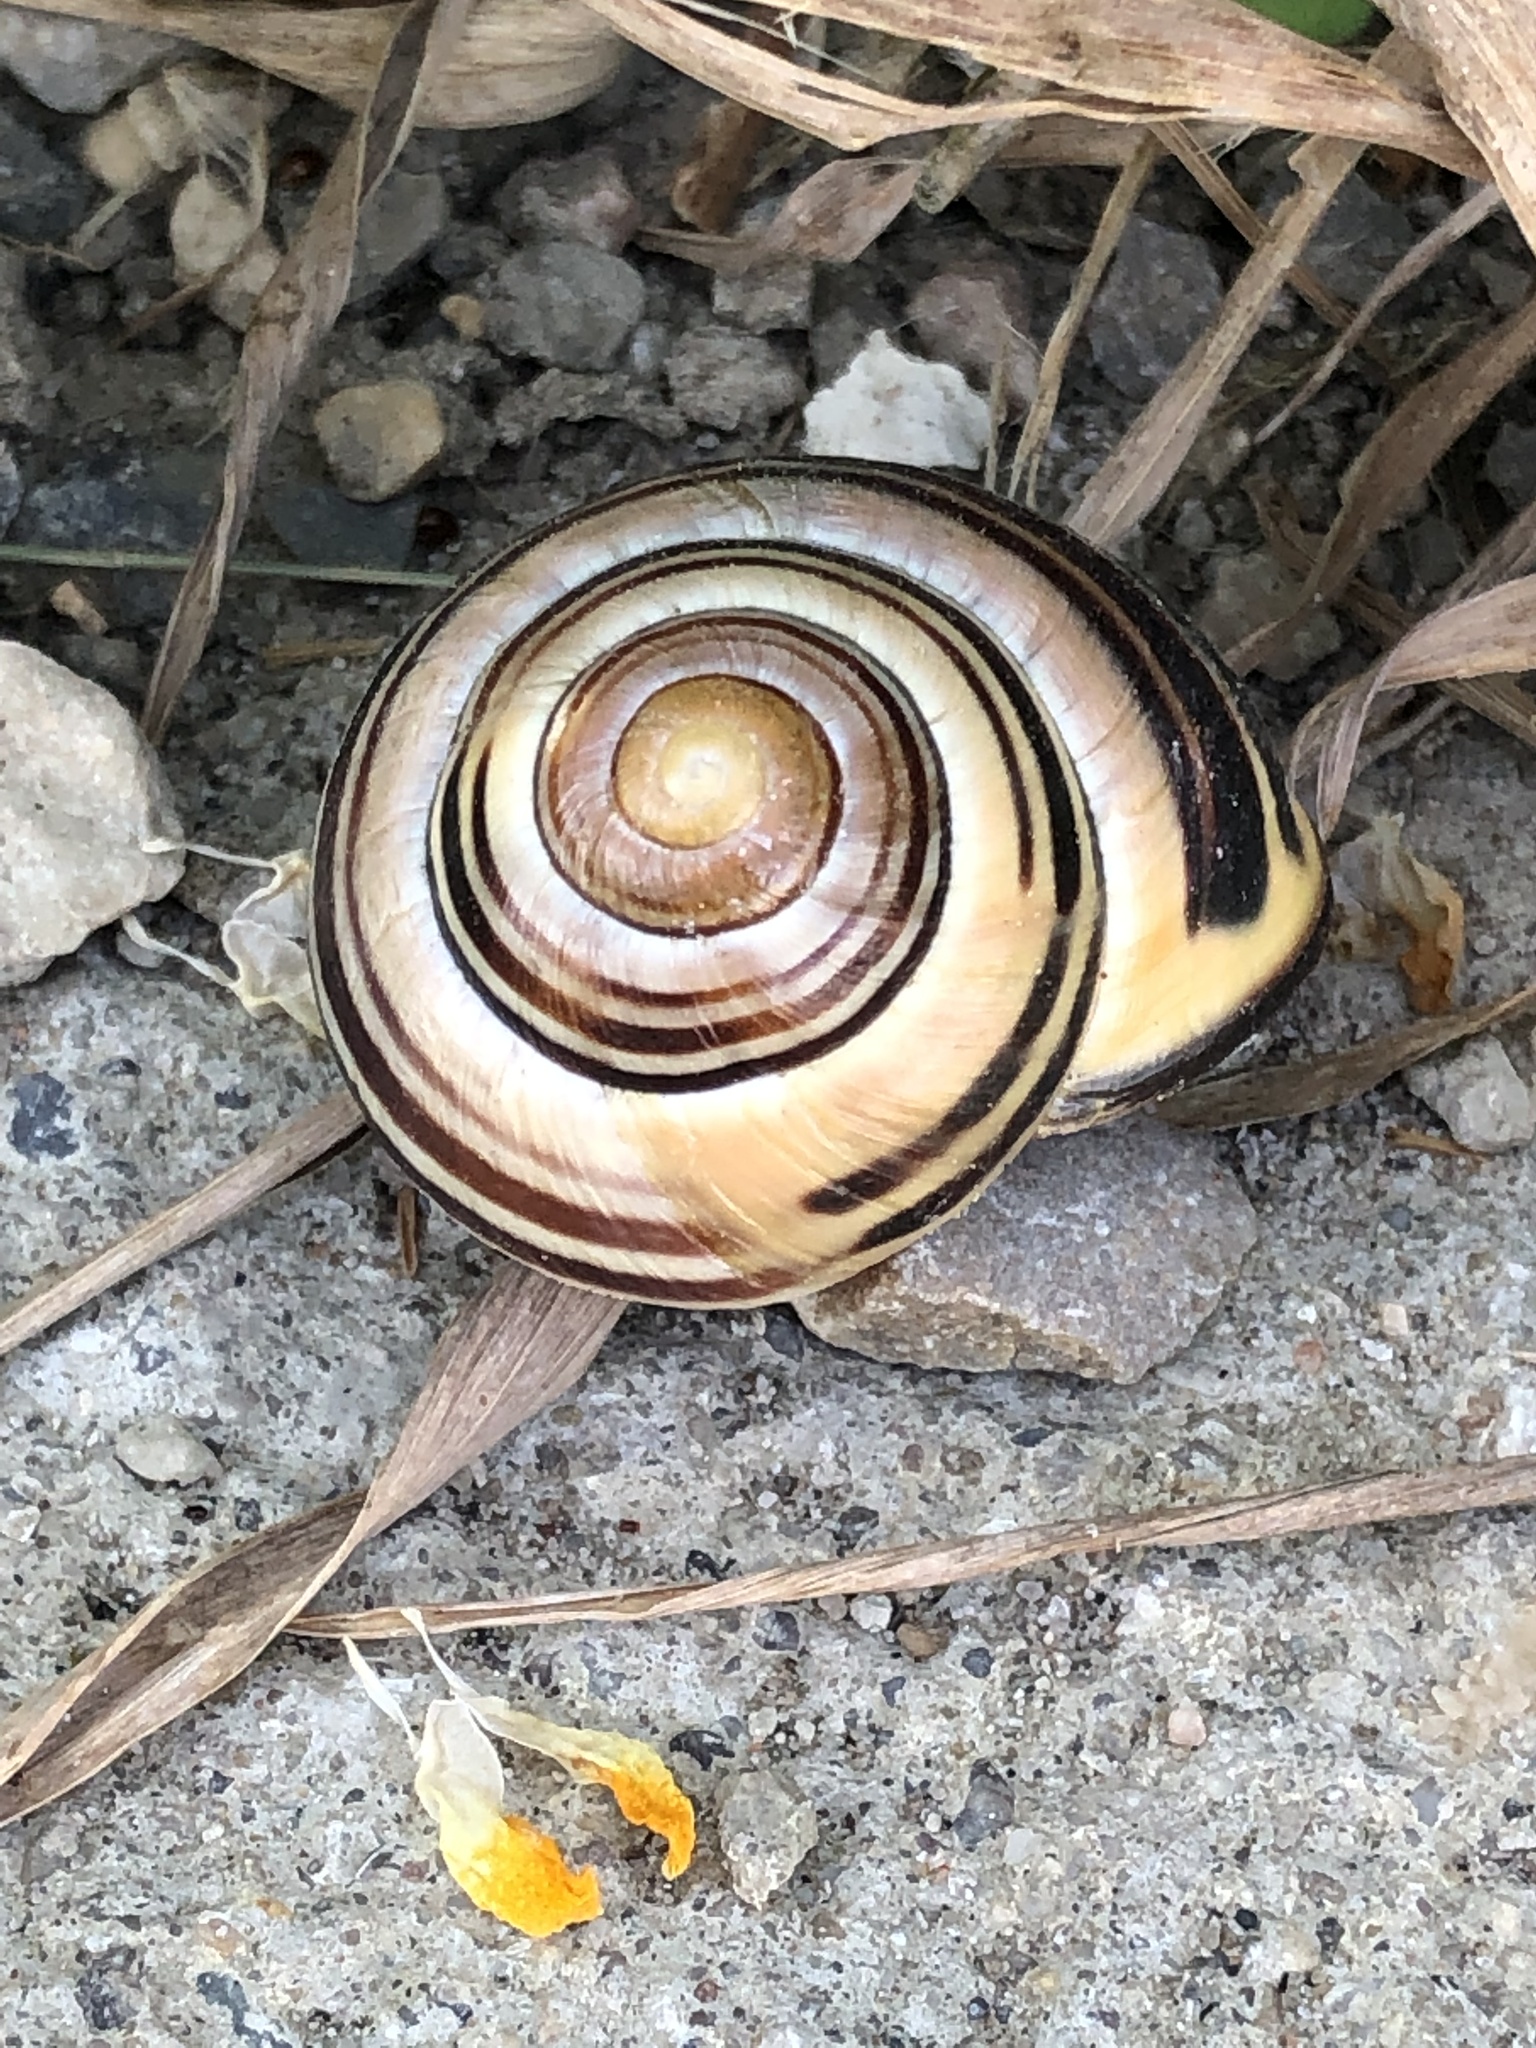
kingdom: Animalia
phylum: Mollusca
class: Gastropoda
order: Stylommatophora
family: Helicidae
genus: Cepaea
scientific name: Cepaea nemoralis
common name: Grovesnail
